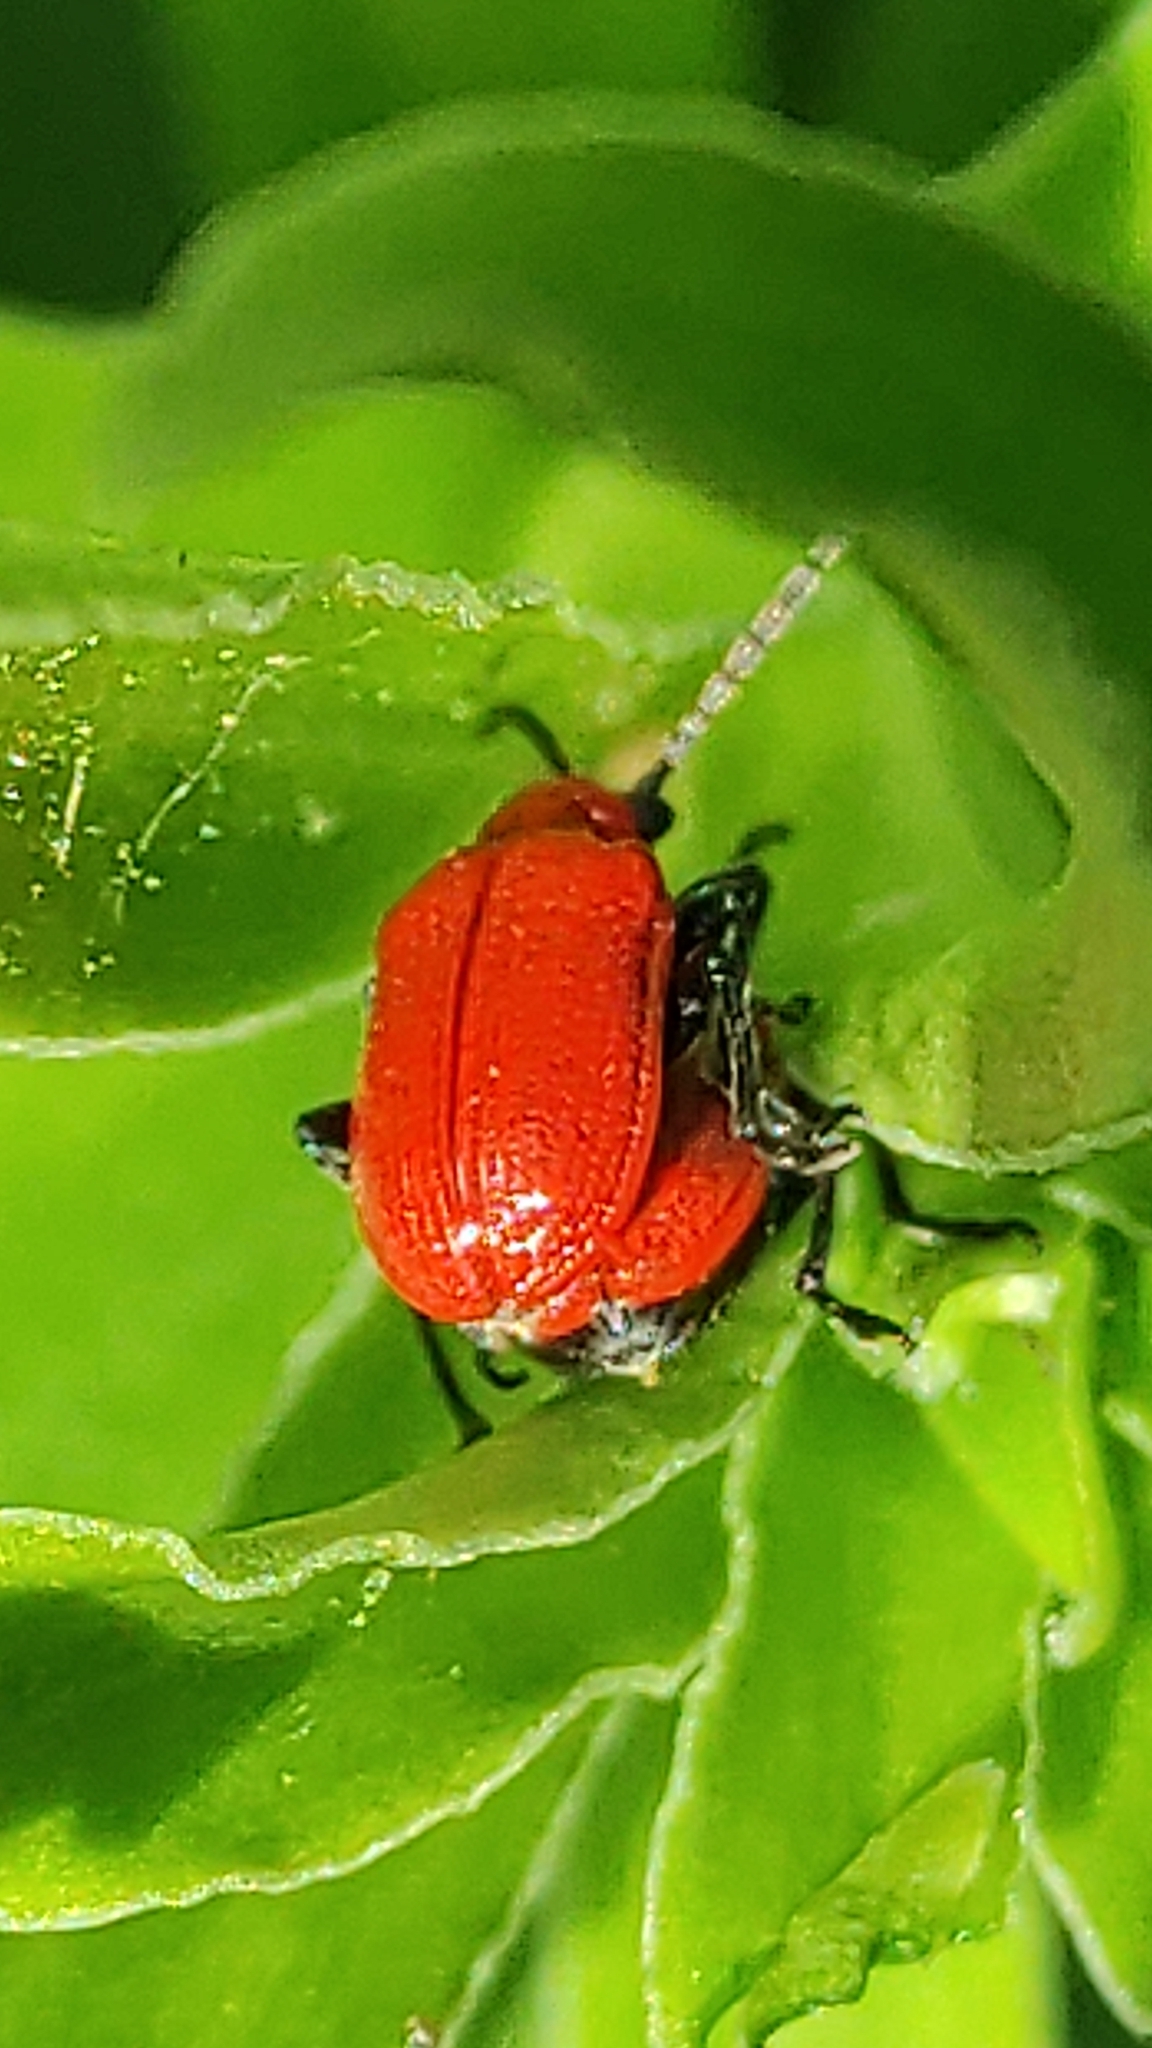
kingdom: Animalia
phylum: Arthropoda
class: Insecta
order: Coleoptera
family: Chrysomelidae
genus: Lilioceris
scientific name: Lilioceris lilii
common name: Lily beetle
